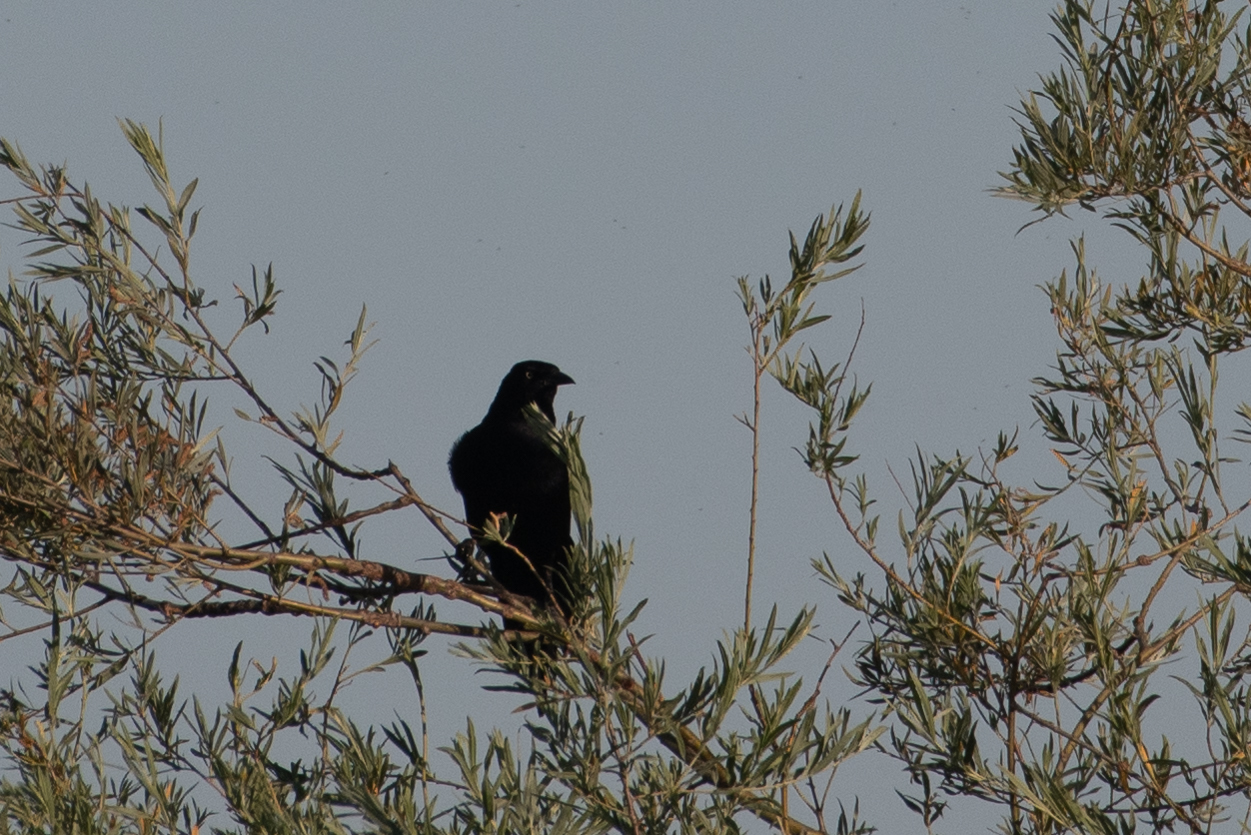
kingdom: Animalia
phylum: Chordata
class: Aves
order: Passeriformes
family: Icteridae
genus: Quiscalus
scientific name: Quiscalus mexicanus
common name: Great-tailed grackle
